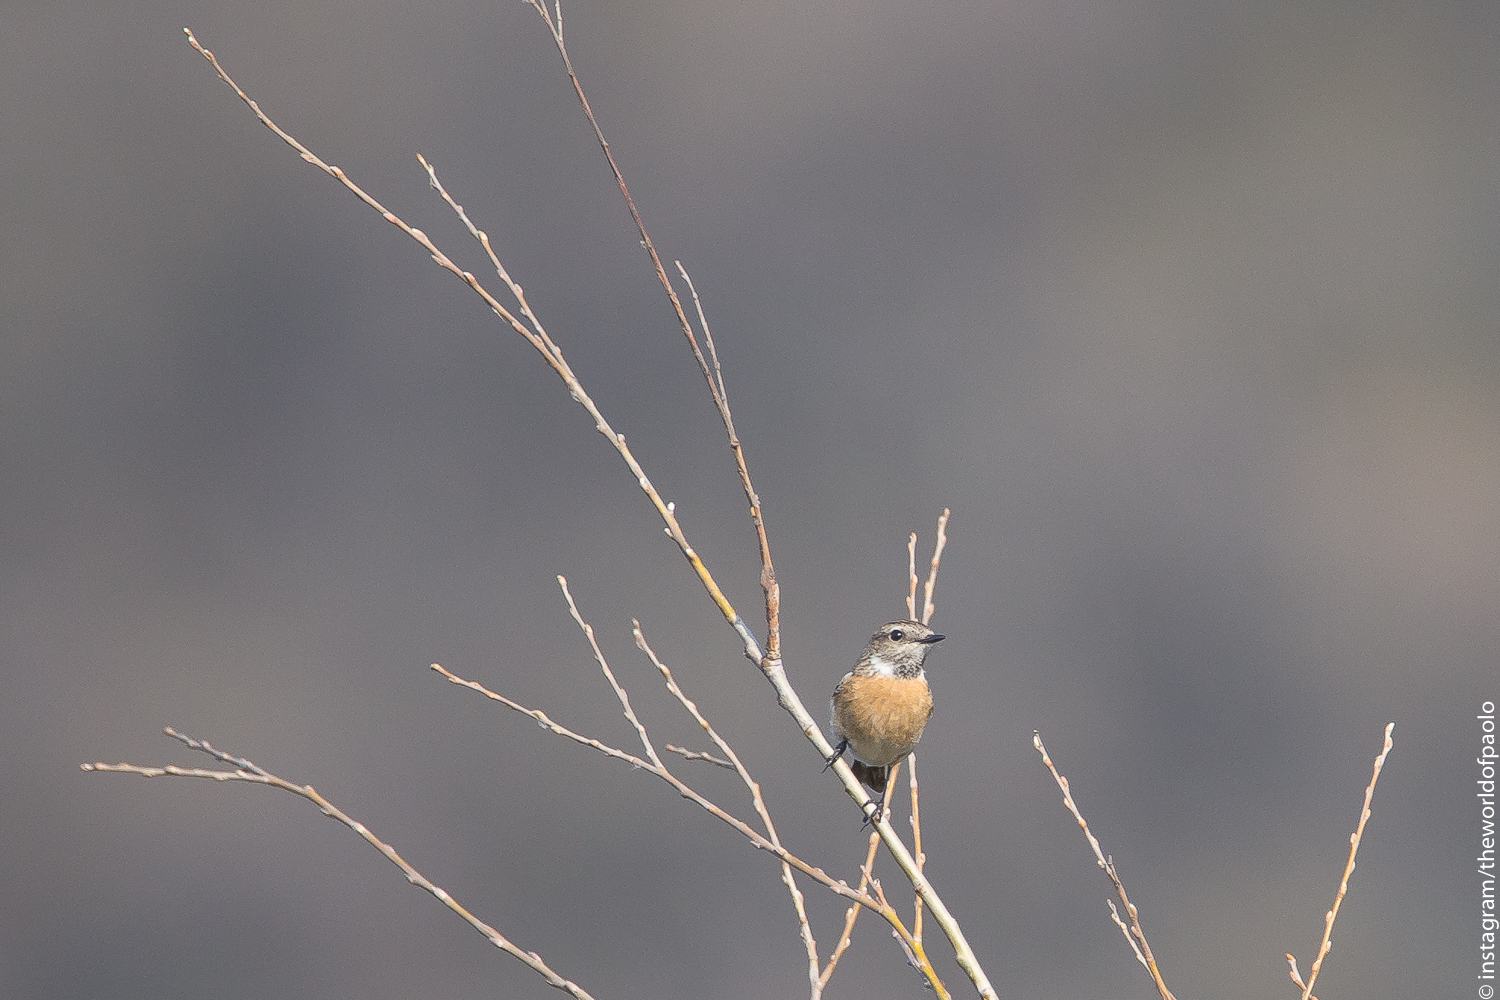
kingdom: Animalia
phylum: Chordata
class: Aves
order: Passeriformes
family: Muscicapidae
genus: Saxicola
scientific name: Saxicola rubicola
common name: European stonechat
